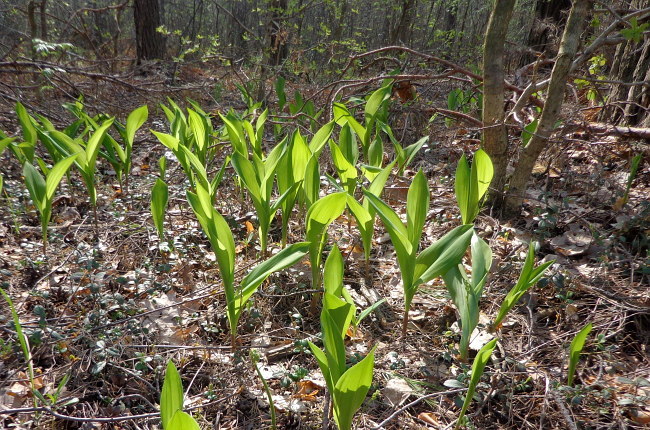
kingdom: Plantae
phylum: Tracheophyta
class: Liliopsida
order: Asparagales
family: Asparagaceae
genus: Convallaria
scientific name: Convallaria majalis
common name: Lily-of-the-valley
